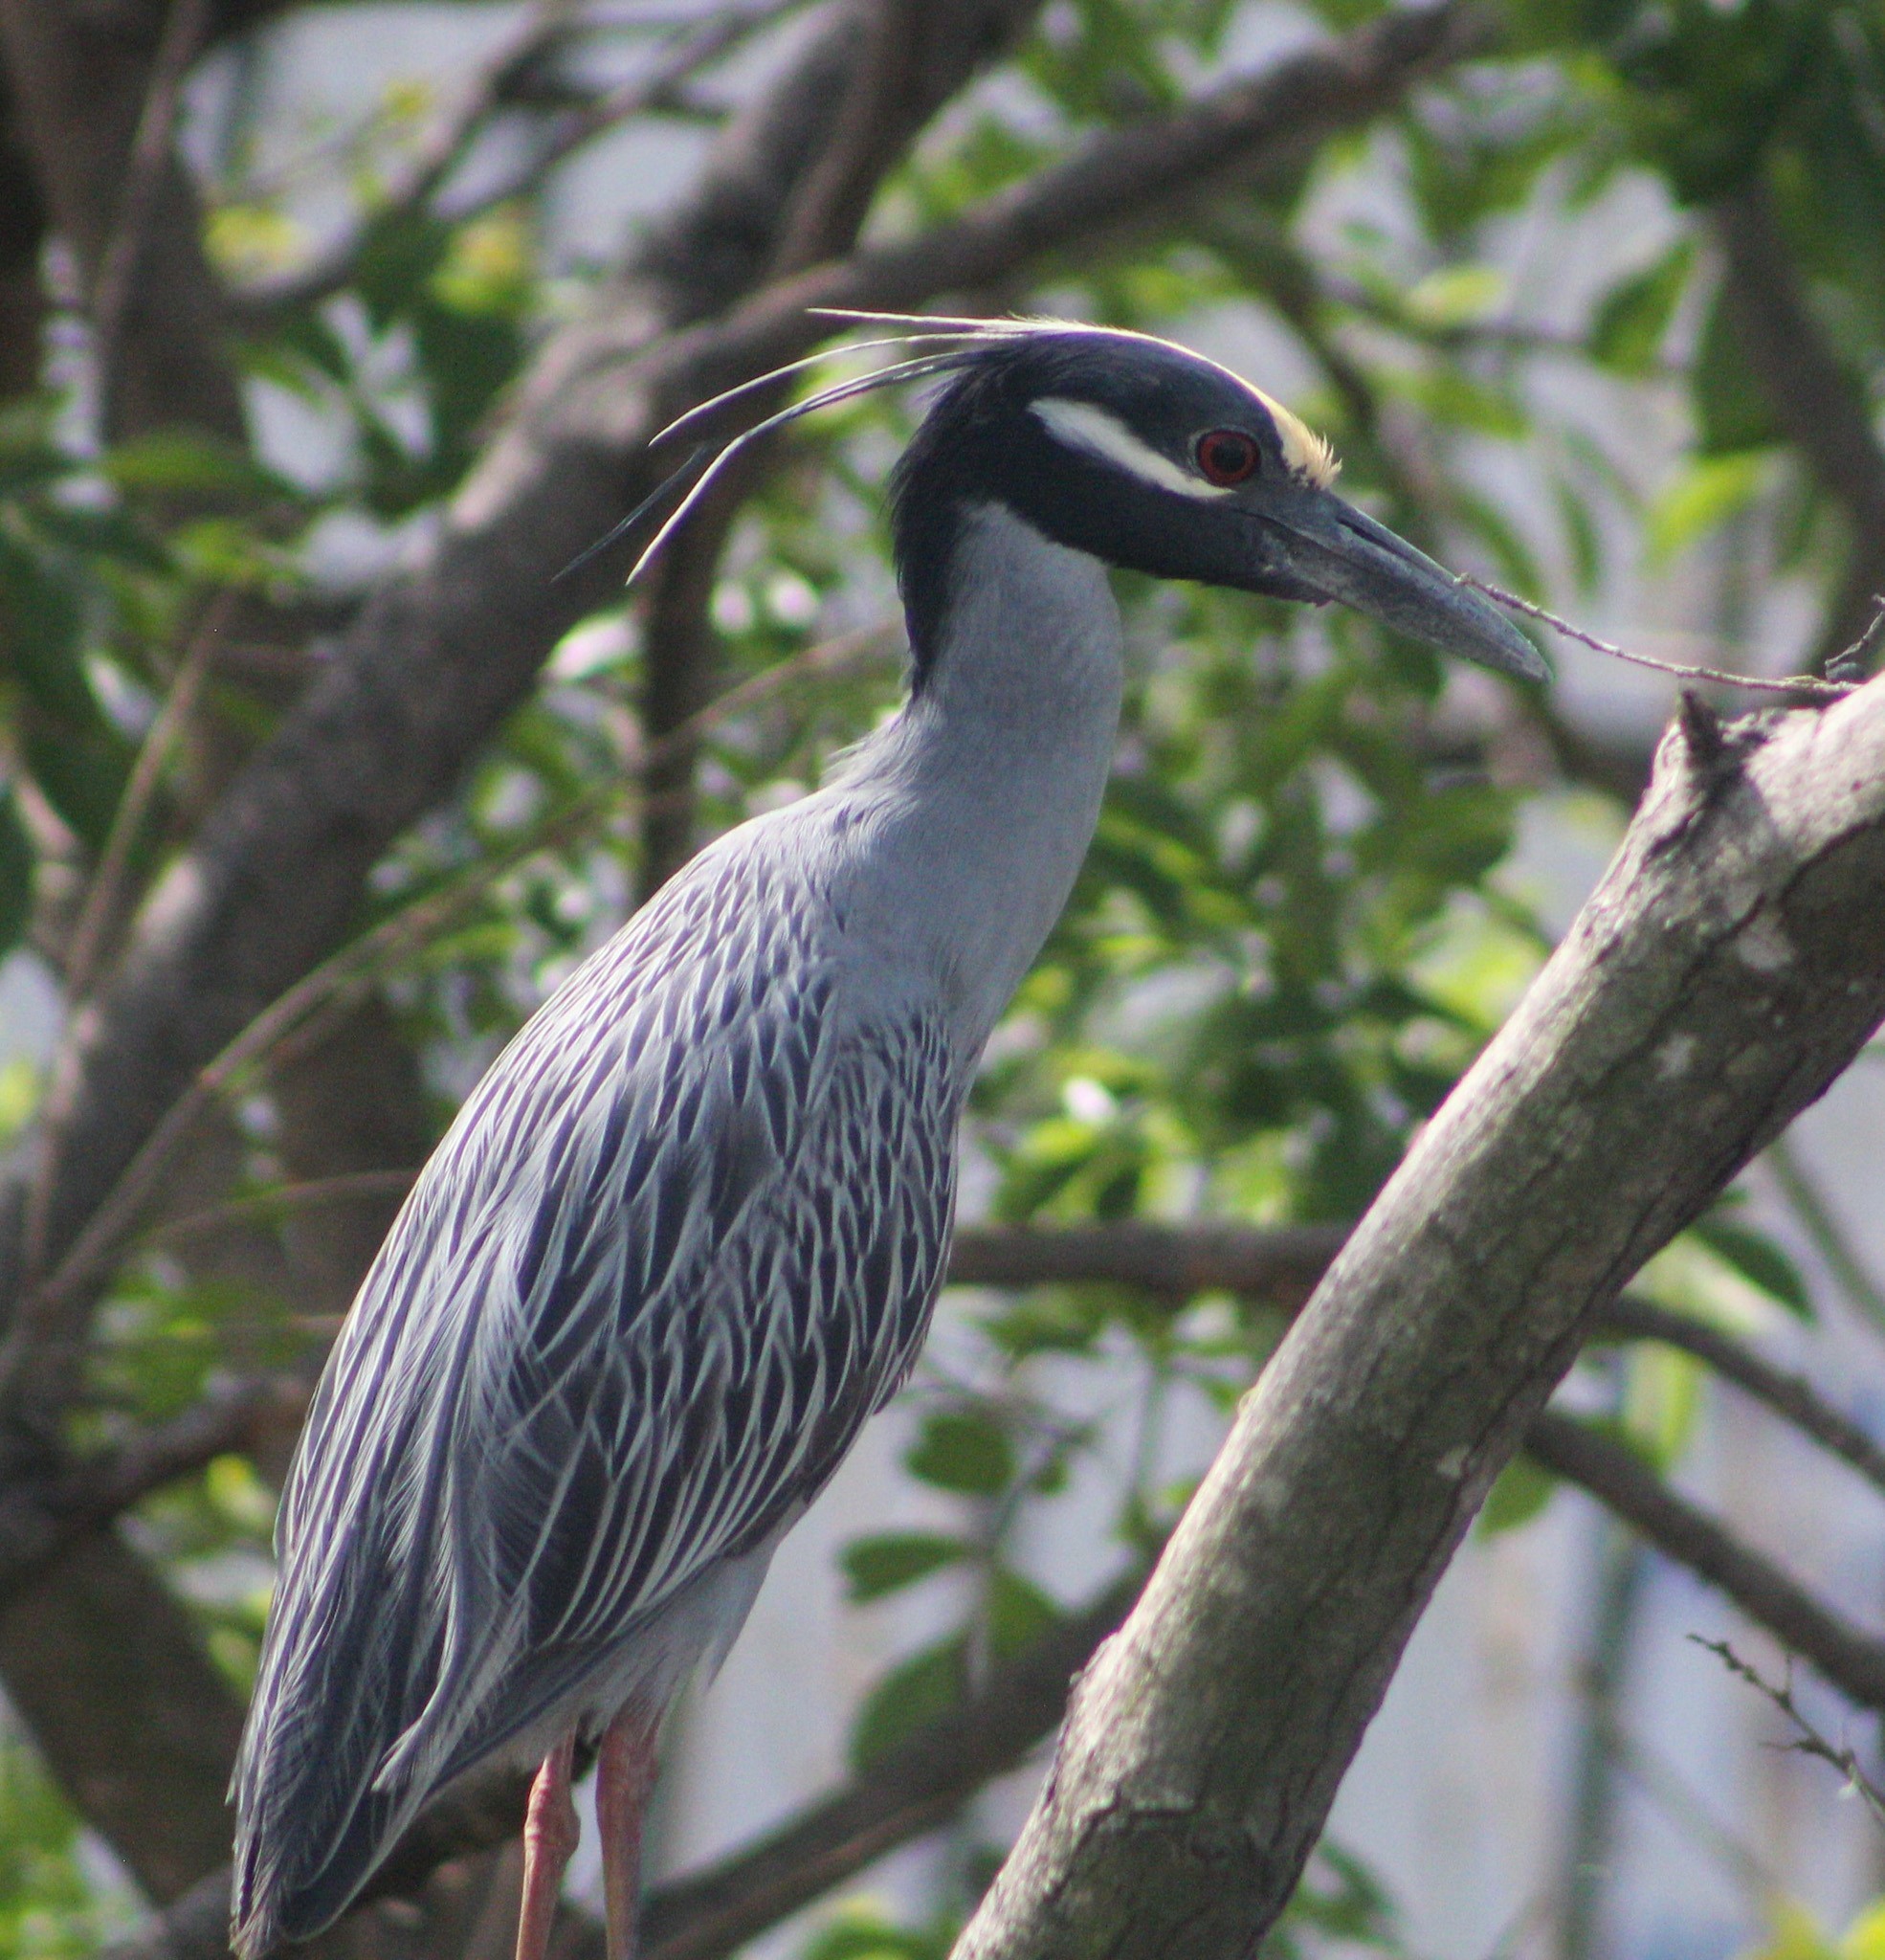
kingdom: Animalia
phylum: Chordata
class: Aves
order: Pelecaniformes
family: Ardeidae
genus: Nyctanassa
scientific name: Nyctanassa violacea
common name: Yellow-crowned night heron
